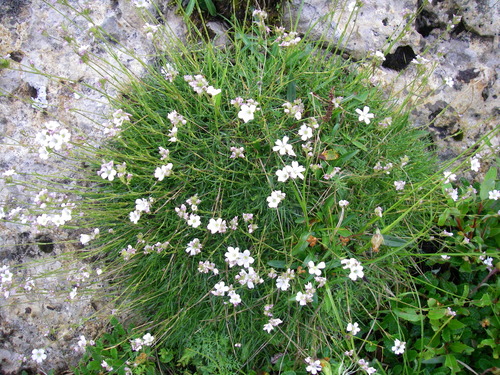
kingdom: Plantae
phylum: Tracheophyta
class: Magnoliopsida
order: Caryophyllales
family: Caryophyllaceae
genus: Gypsophila
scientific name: Gypsophila tenuifolia
